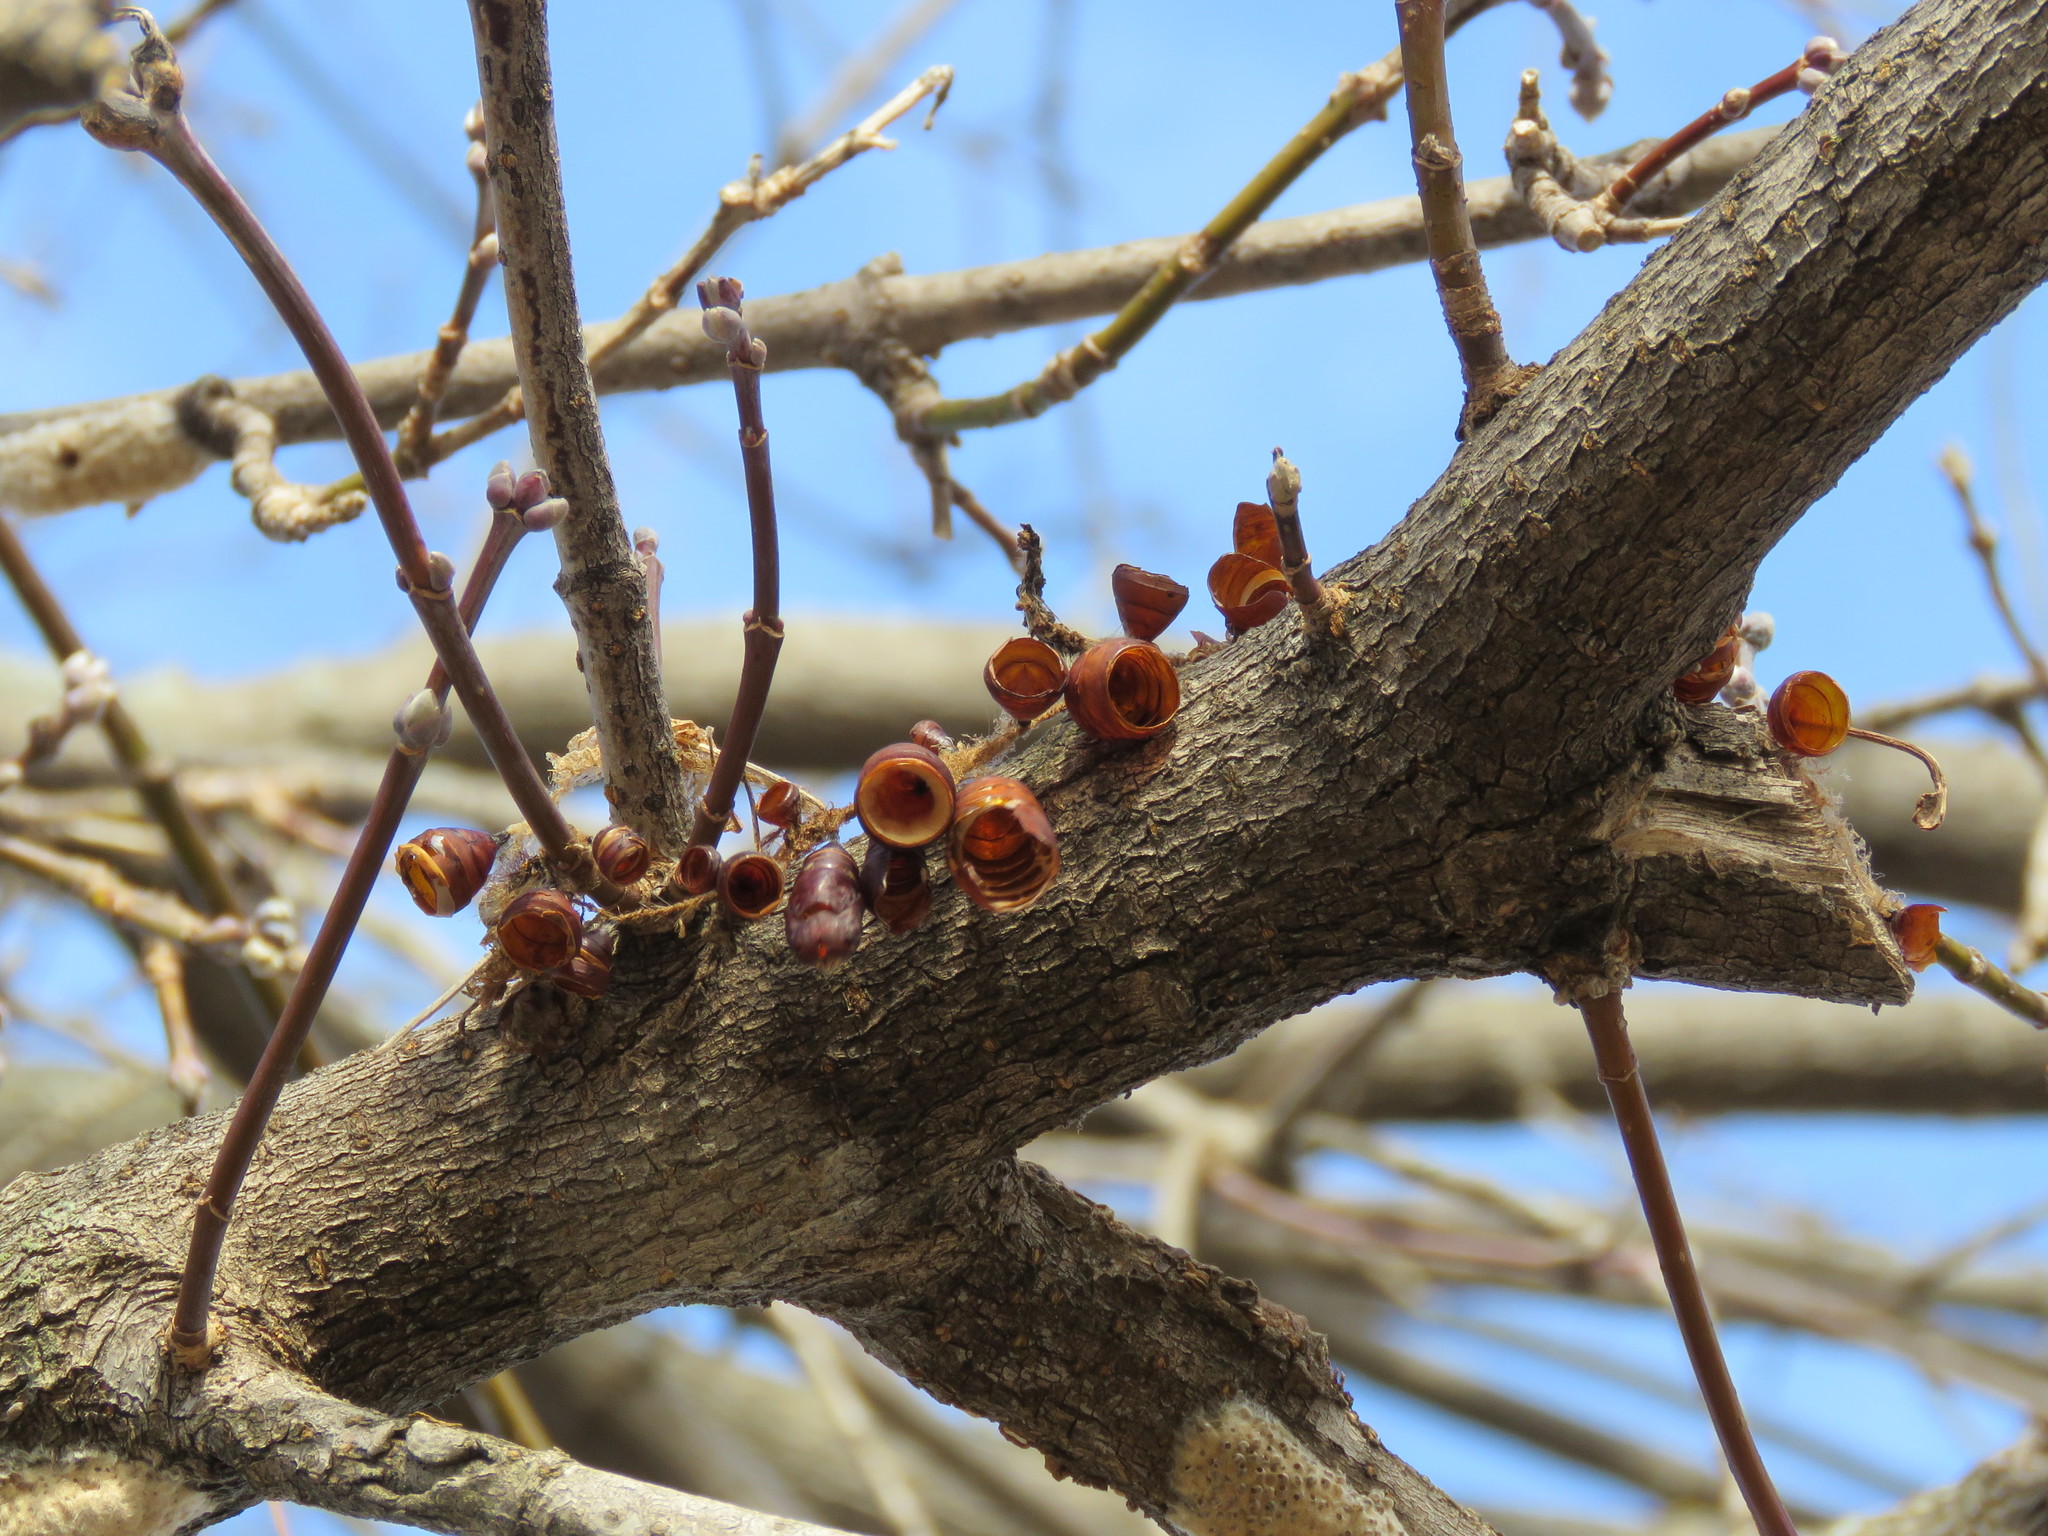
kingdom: Animalia
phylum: Arthropoda
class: Insecta
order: Lepidoptera
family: Erebidae
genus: Lymantria
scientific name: Lymantria dispar
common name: Gypsy moth
